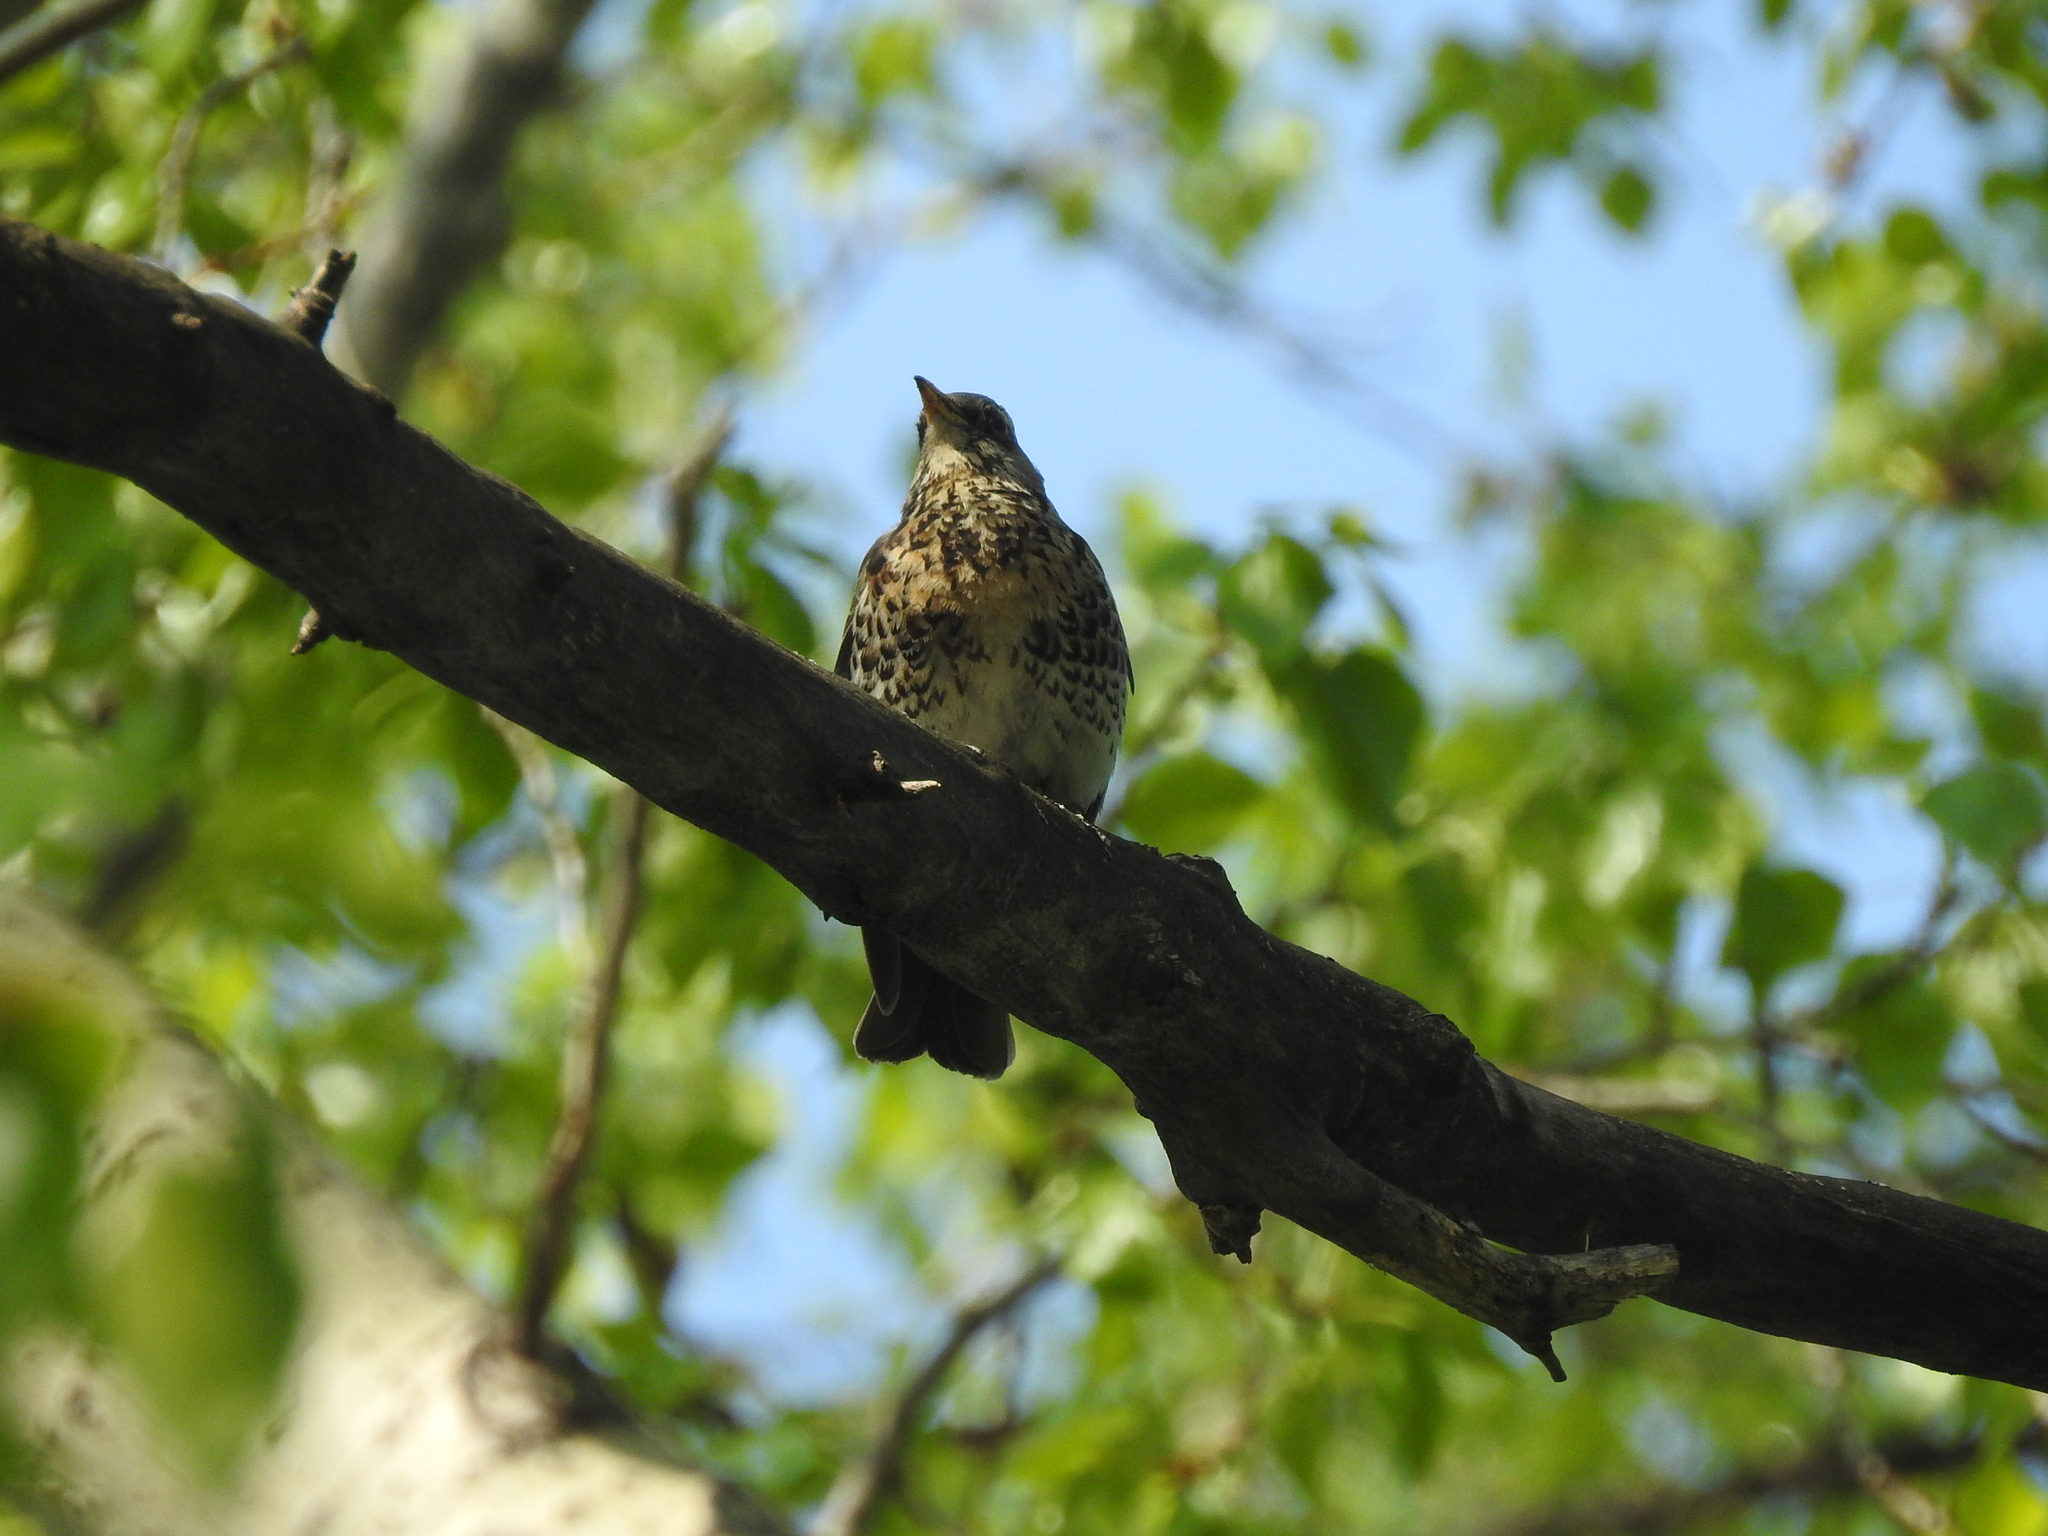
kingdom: Animalia
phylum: Chordata
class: Aves
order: Passeriformes
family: Turdidae
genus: Turdus
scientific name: Turdus pilaris
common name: Fieldfare
